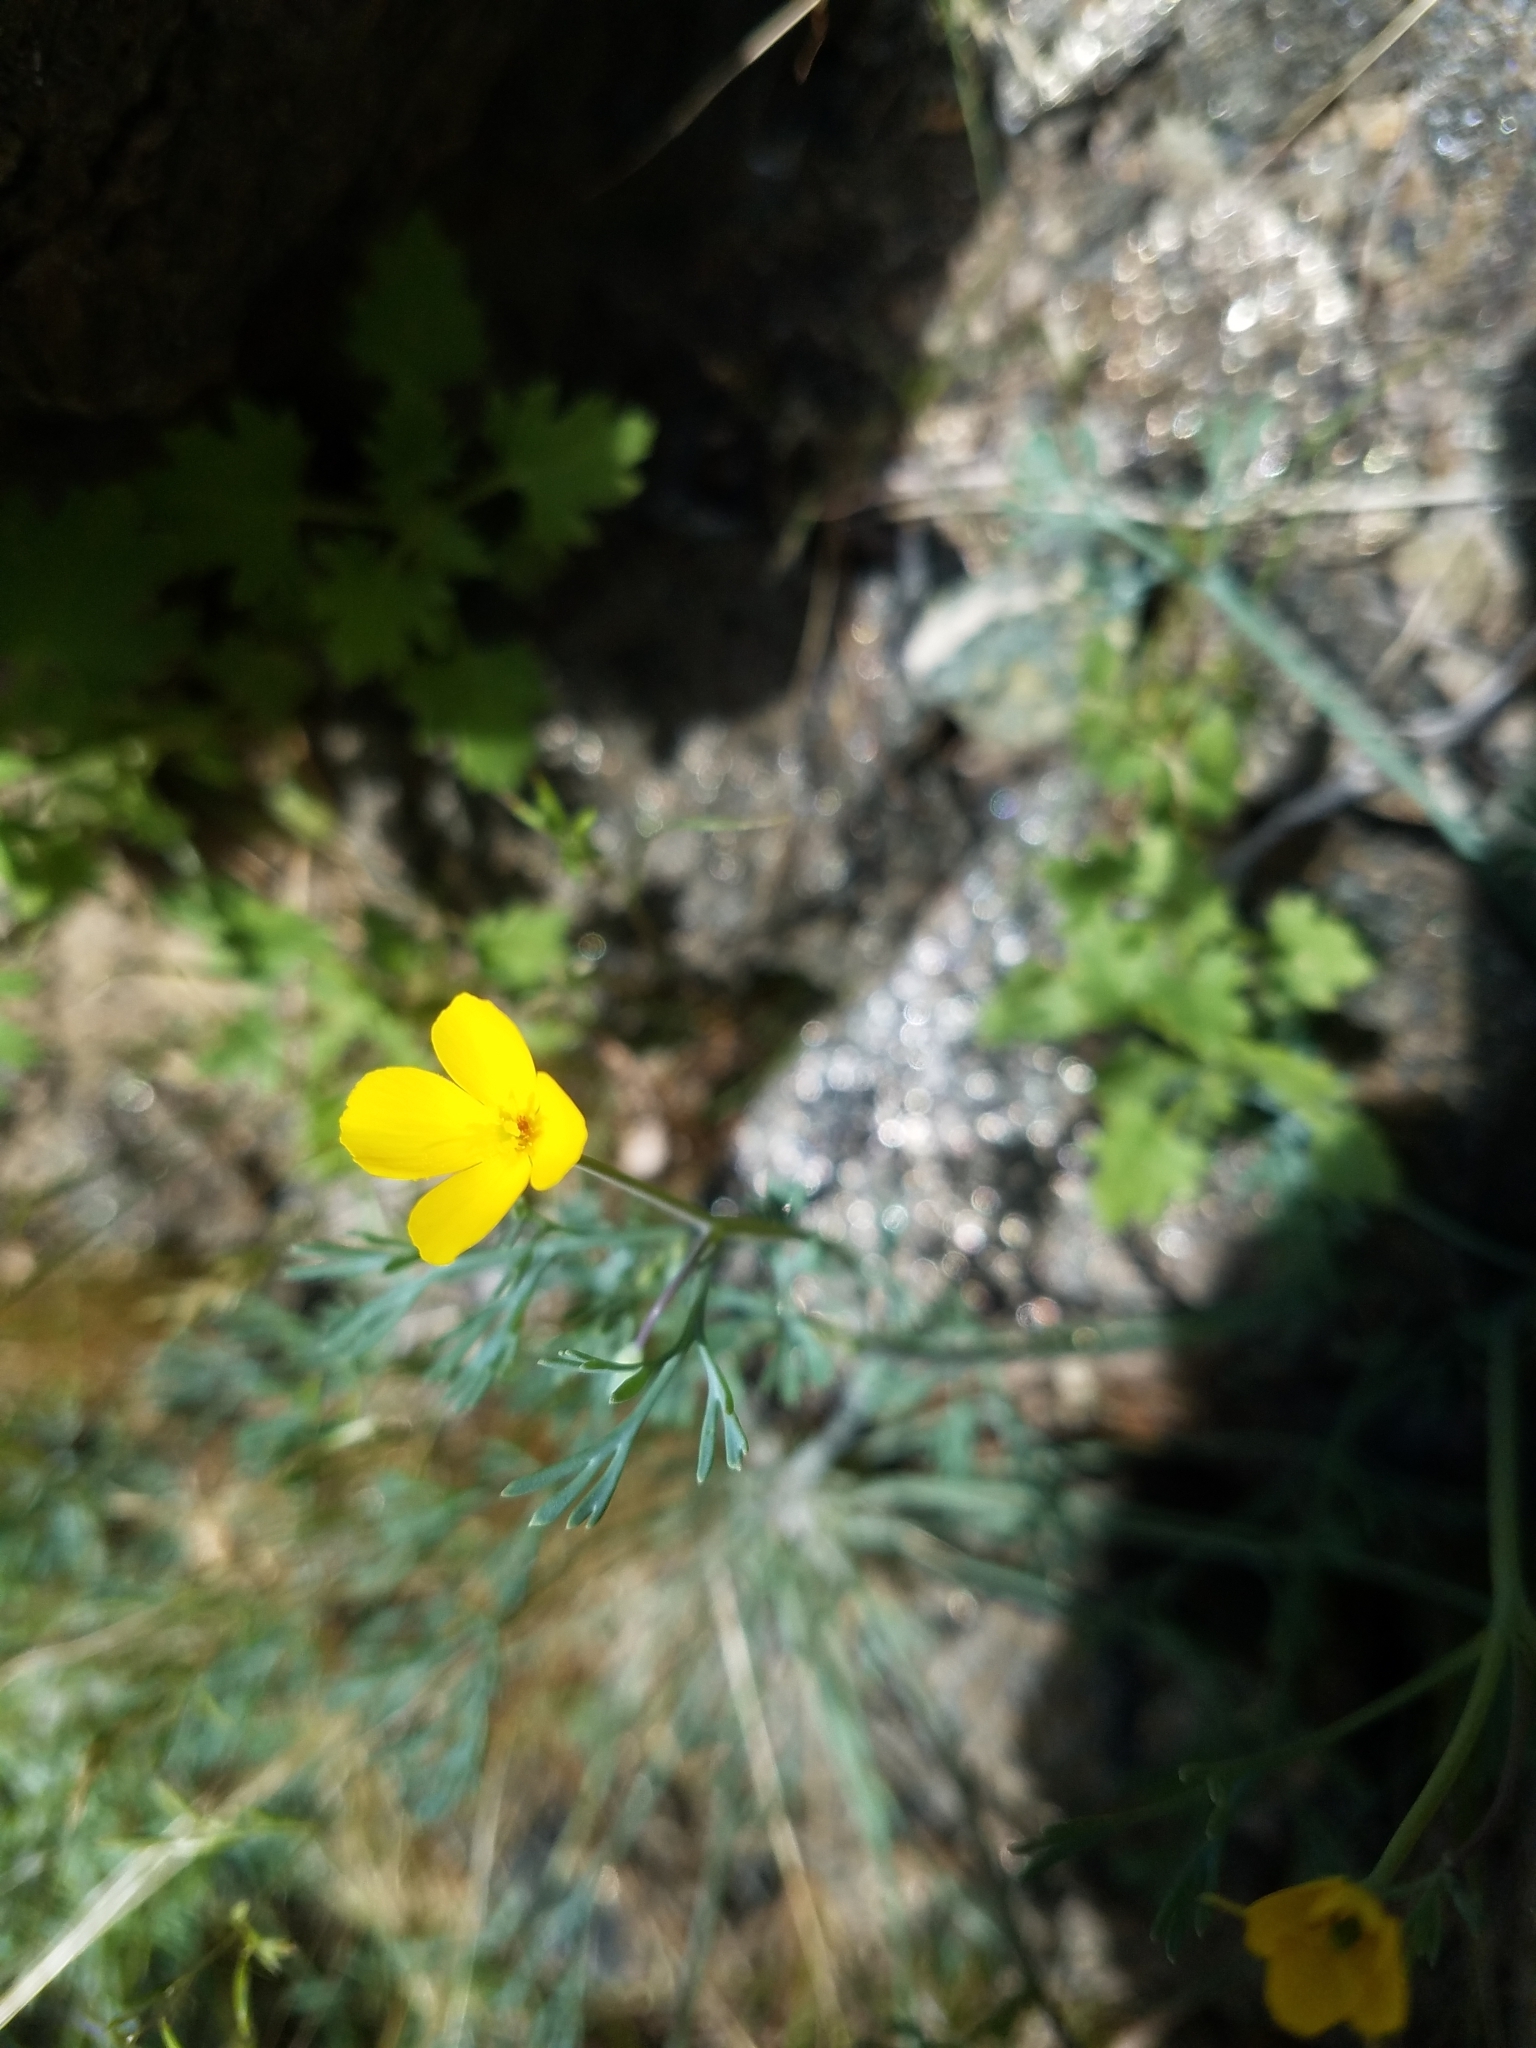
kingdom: Plantae
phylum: Tracheophyta
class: Magnoliopsida
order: Ranunculales
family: Papaveraceae
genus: Eschscholzia
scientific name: Eschscholzia minutiflora
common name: Small-flower california-poppy
